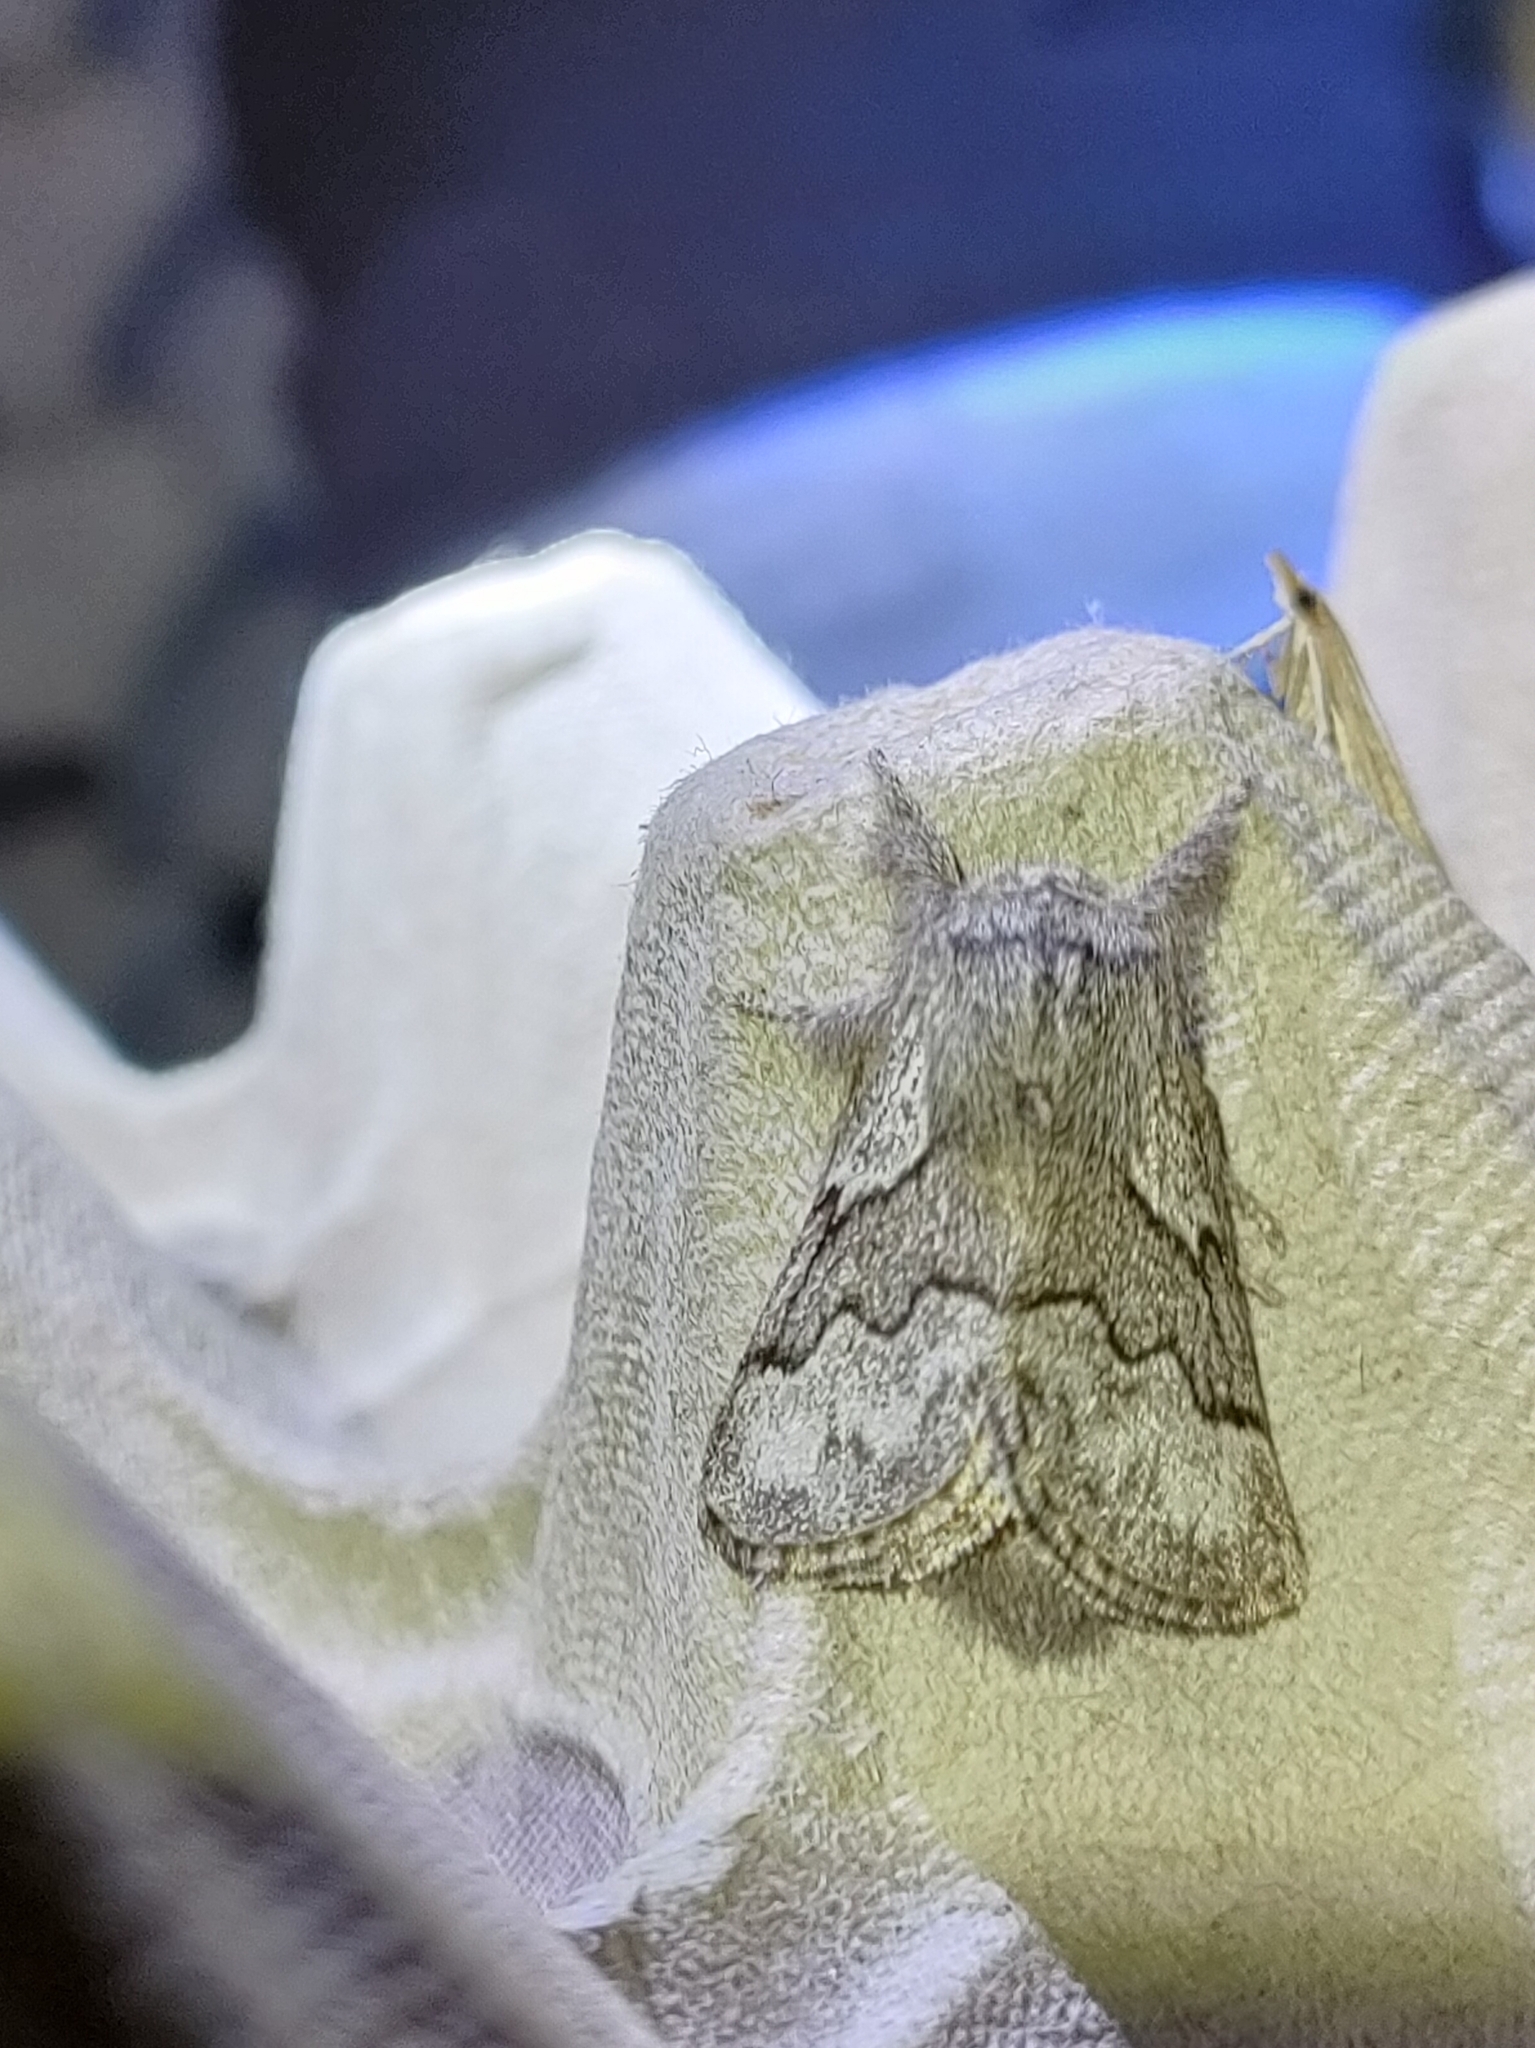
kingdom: Animalia
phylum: Arthropoda
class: Insecta
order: Lepidoptera
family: Lasiocampidae
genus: Trichiura
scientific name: Trichiura crataegi
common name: Pale eggar
